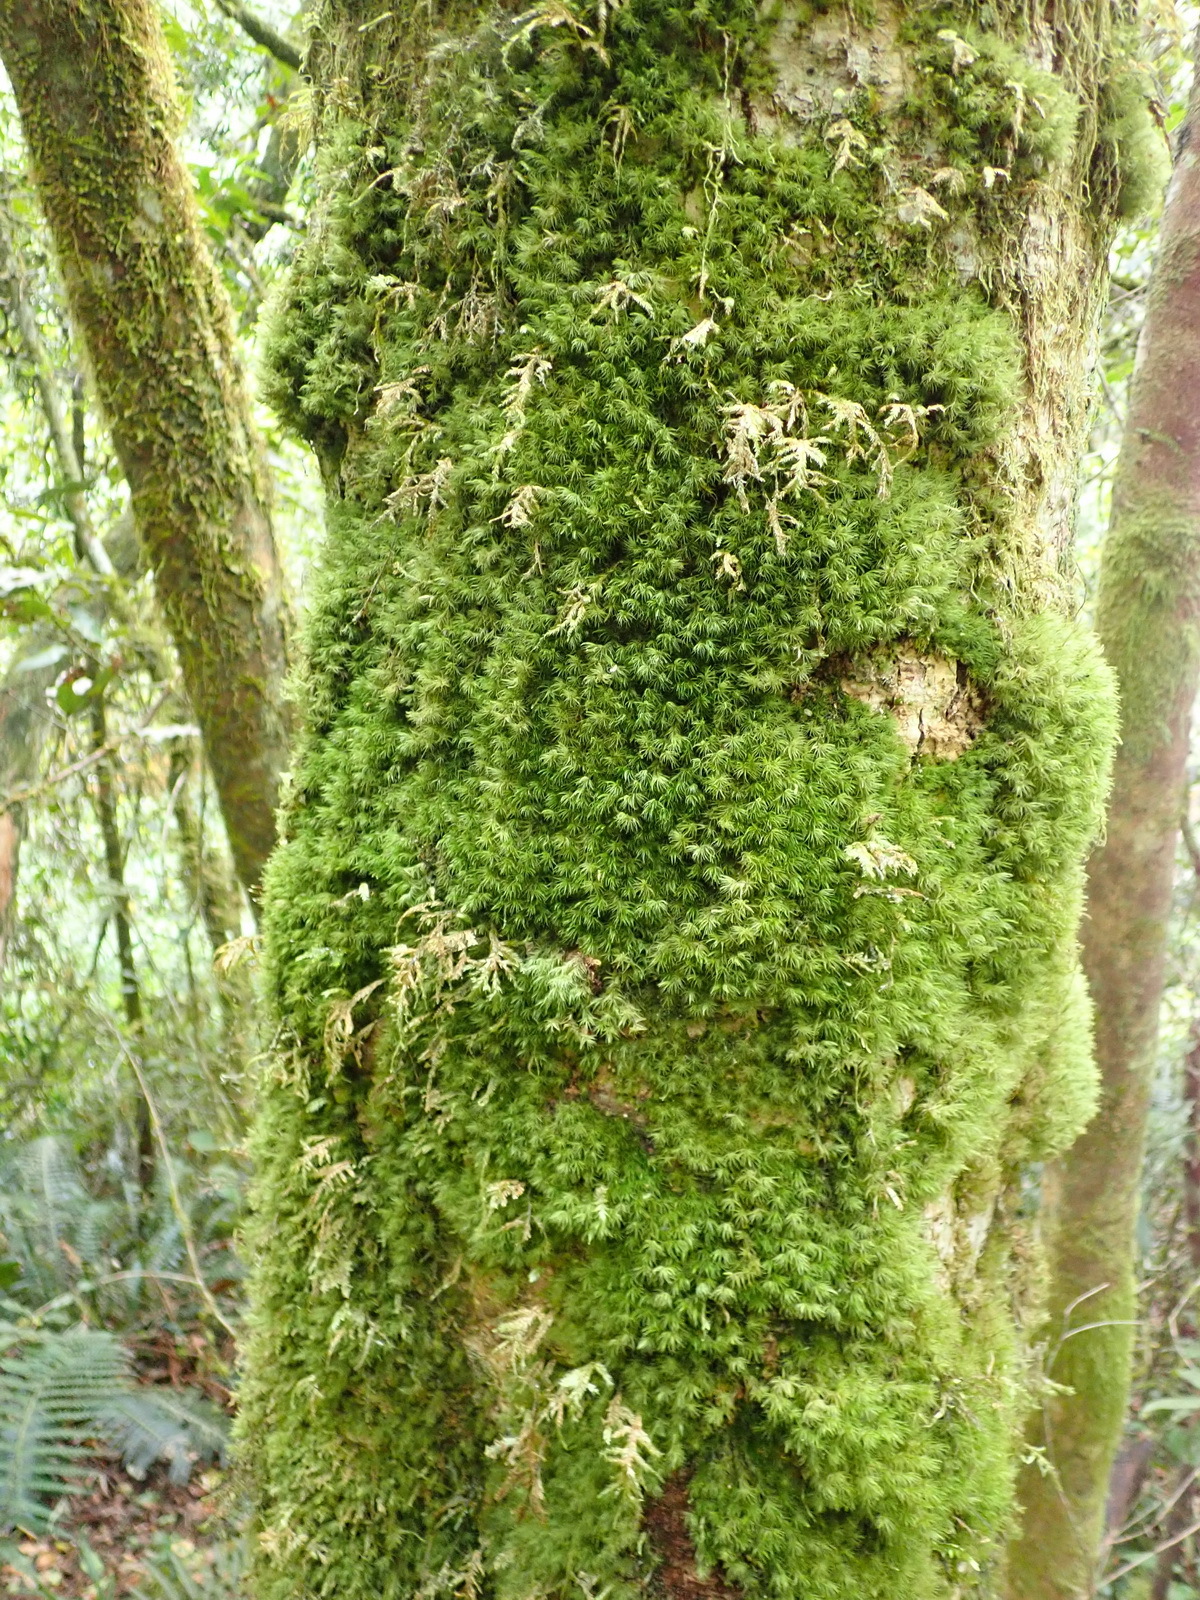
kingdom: Plantae
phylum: Bryophyta
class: Bryopsida
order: Dicranales
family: Dicranaceae
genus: Leucoloma
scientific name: Leucoloma scabricuspis
